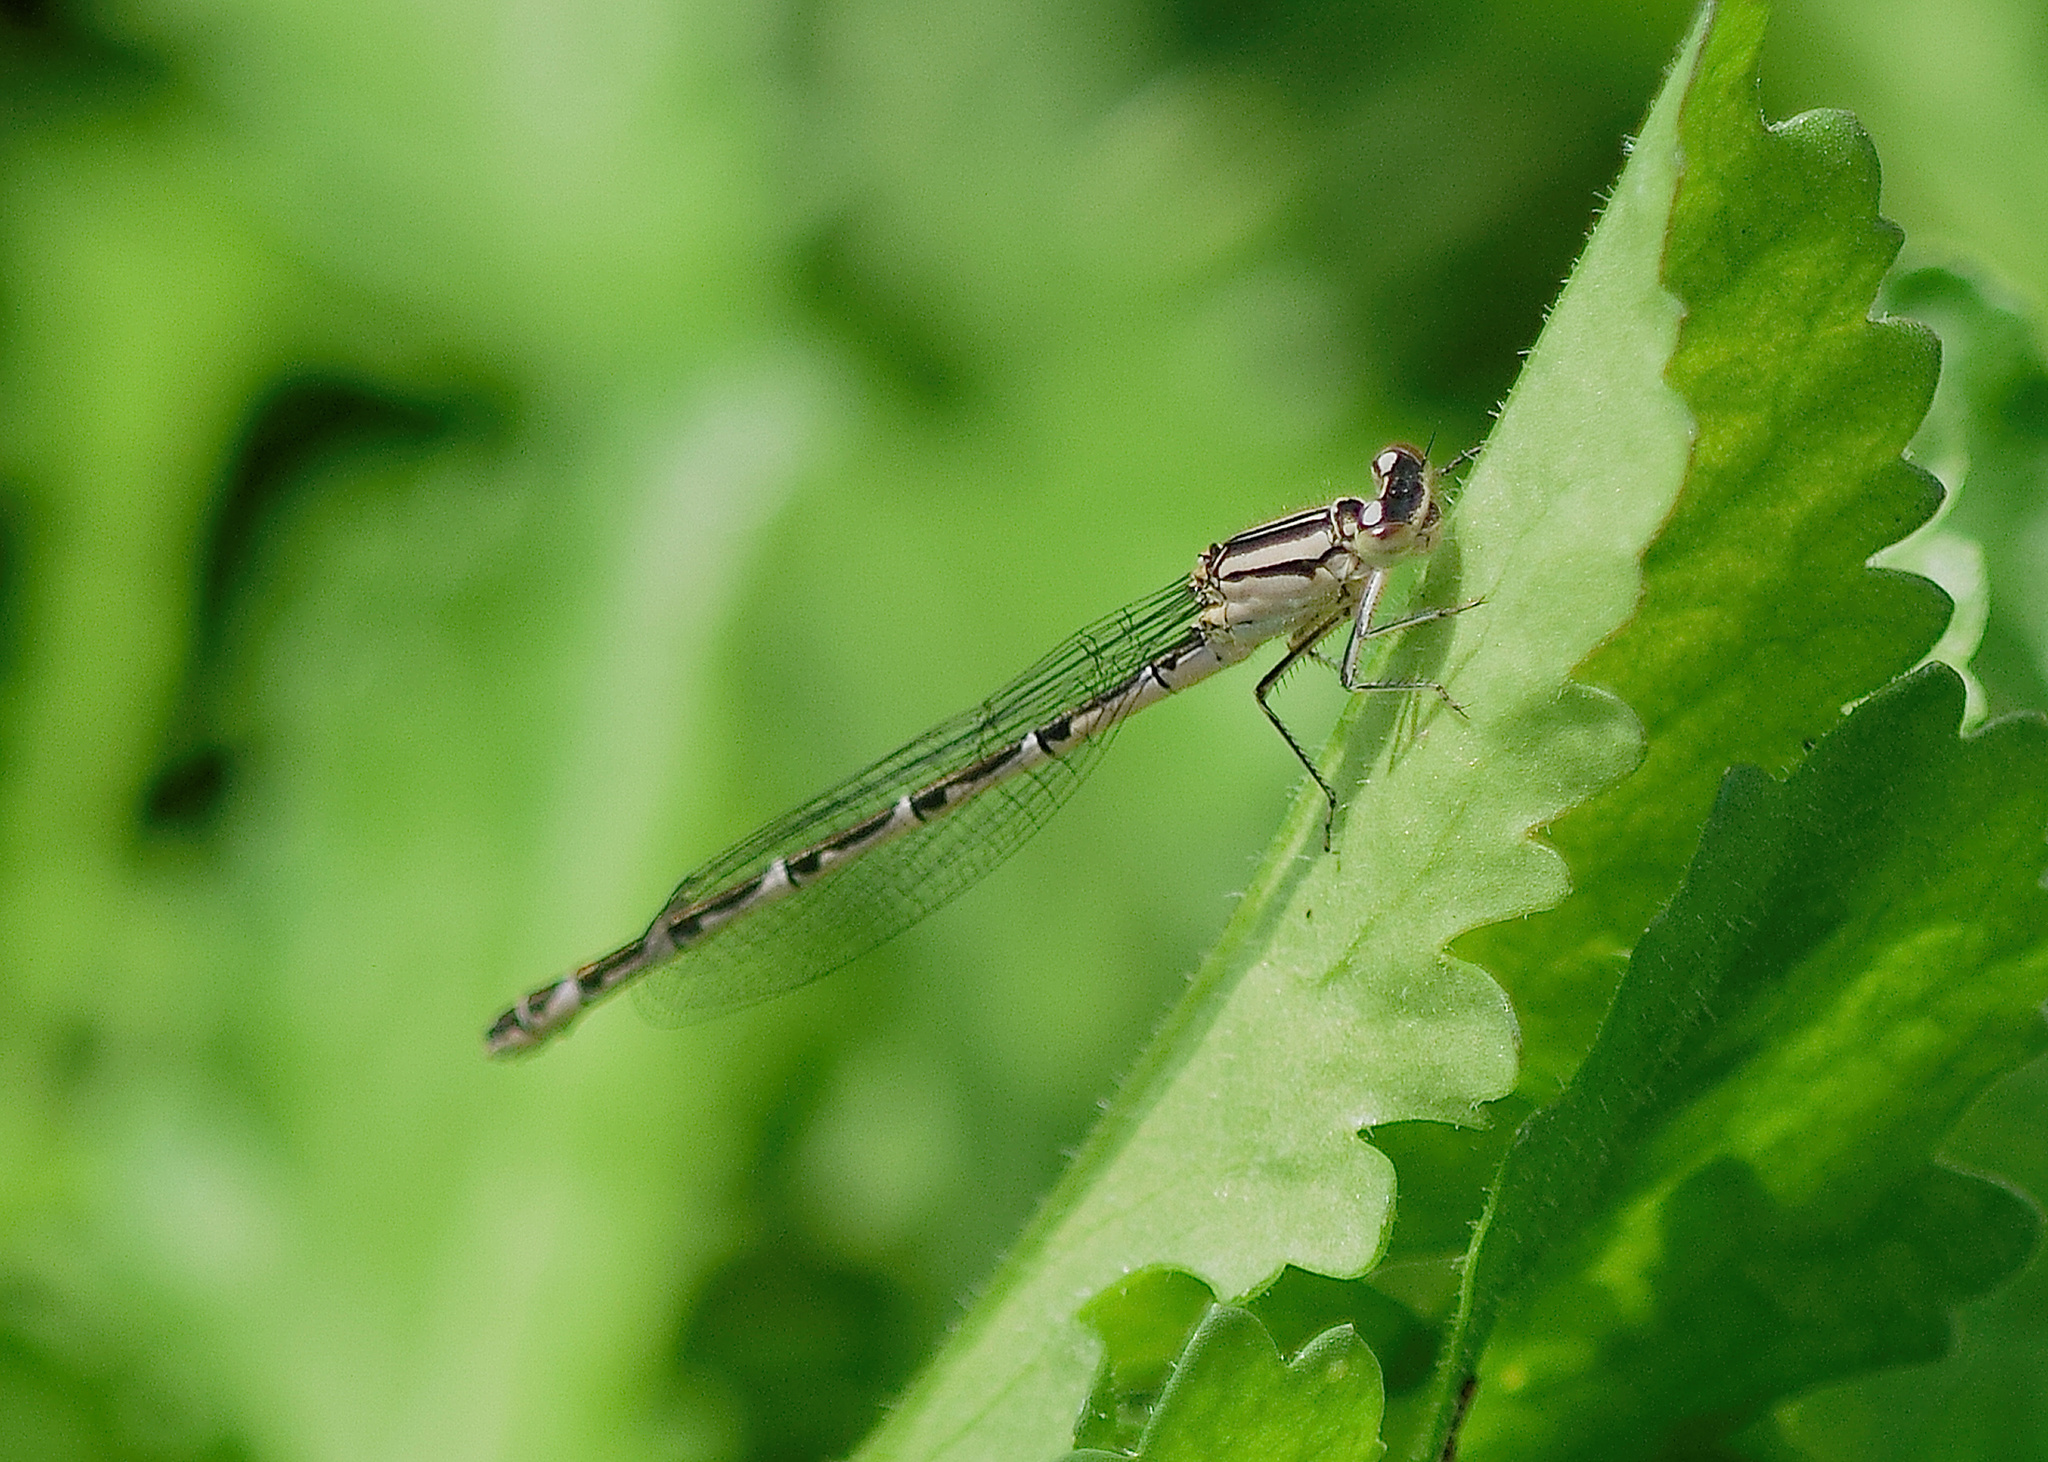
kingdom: Animalia
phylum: Arthropoda
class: Insecta
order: Odonata
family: Coenagrionidae
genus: Enallagma
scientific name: Enallagma cyathigerum
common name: Common blue damselfly
